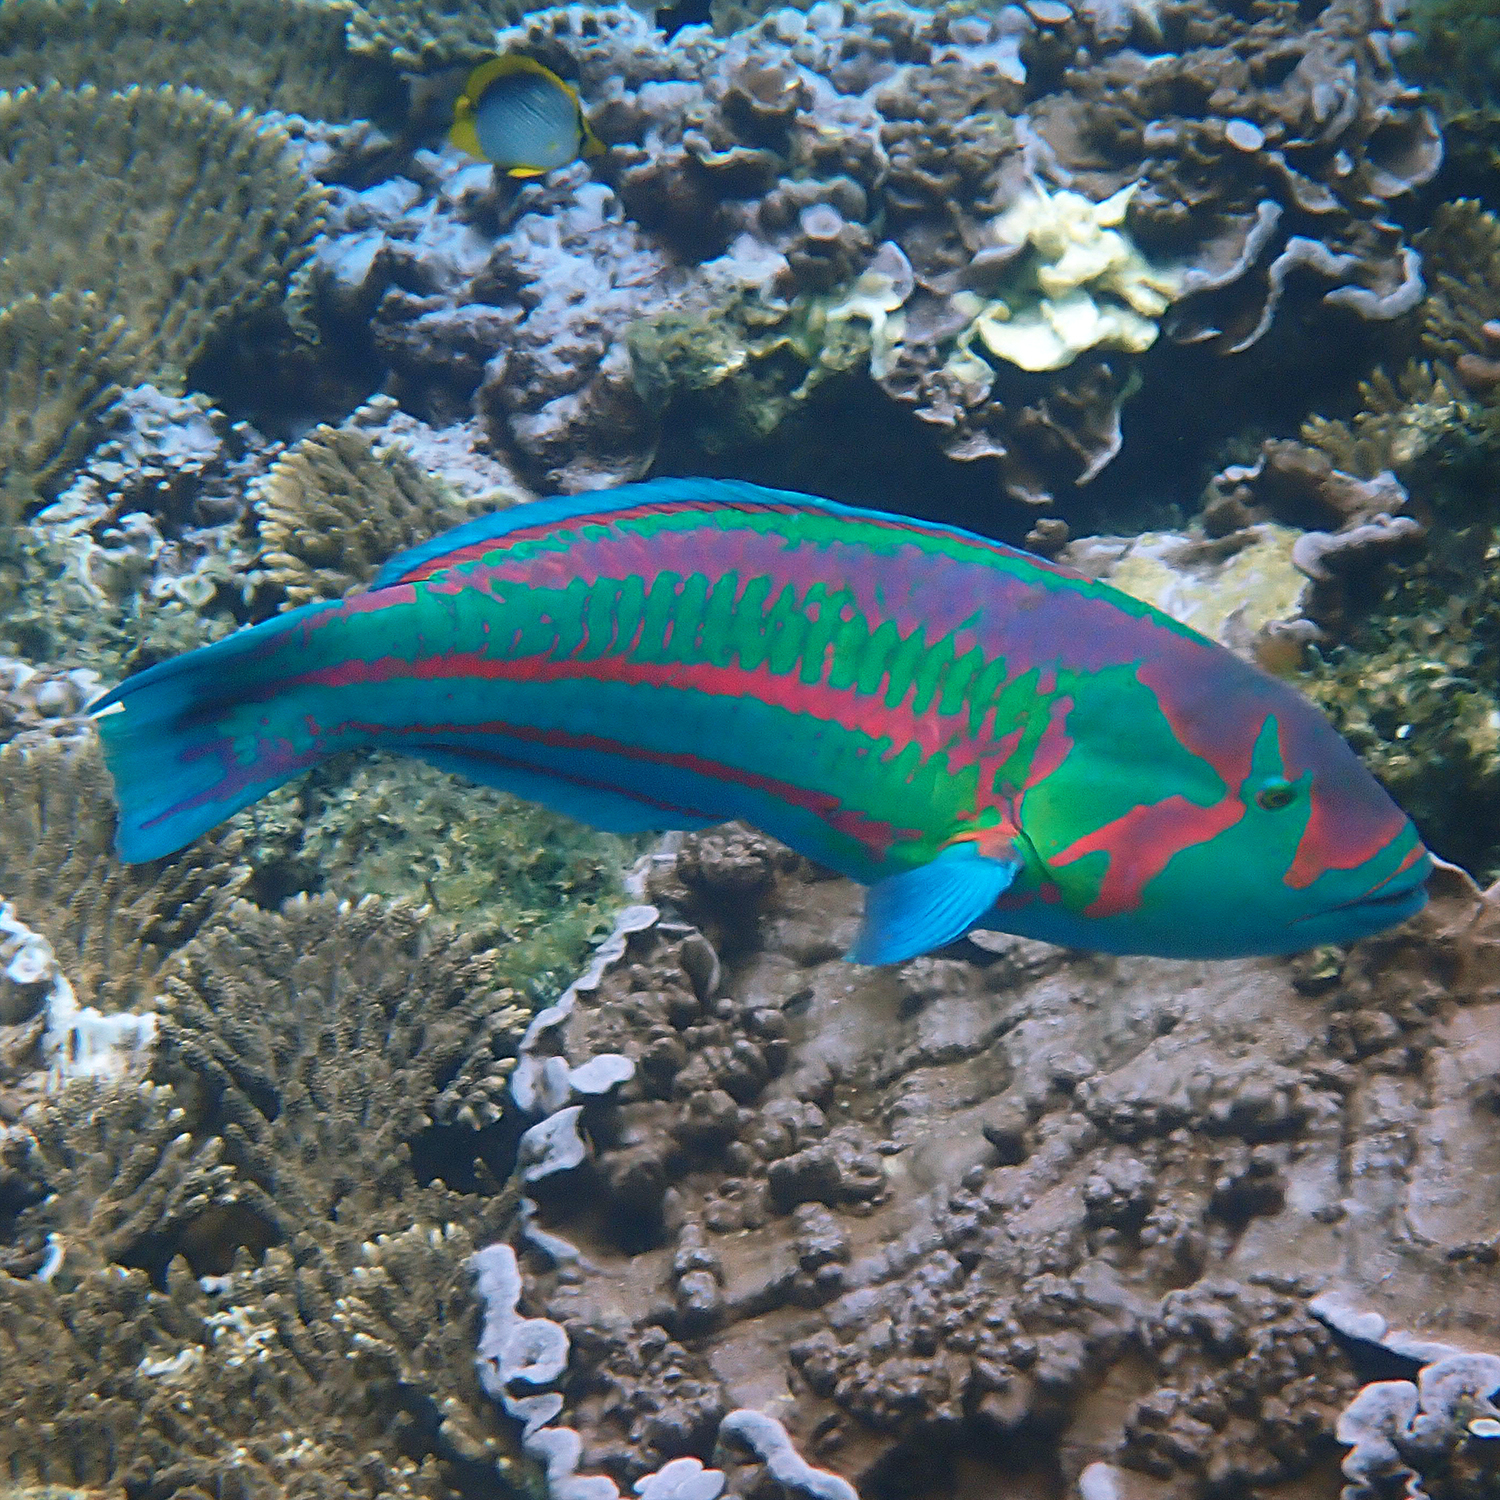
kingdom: Animalia
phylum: Chordata
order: Perciformes
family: Labridae
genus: Thalassoma
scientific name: Thalassoma purpureum
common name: Parrotfish
